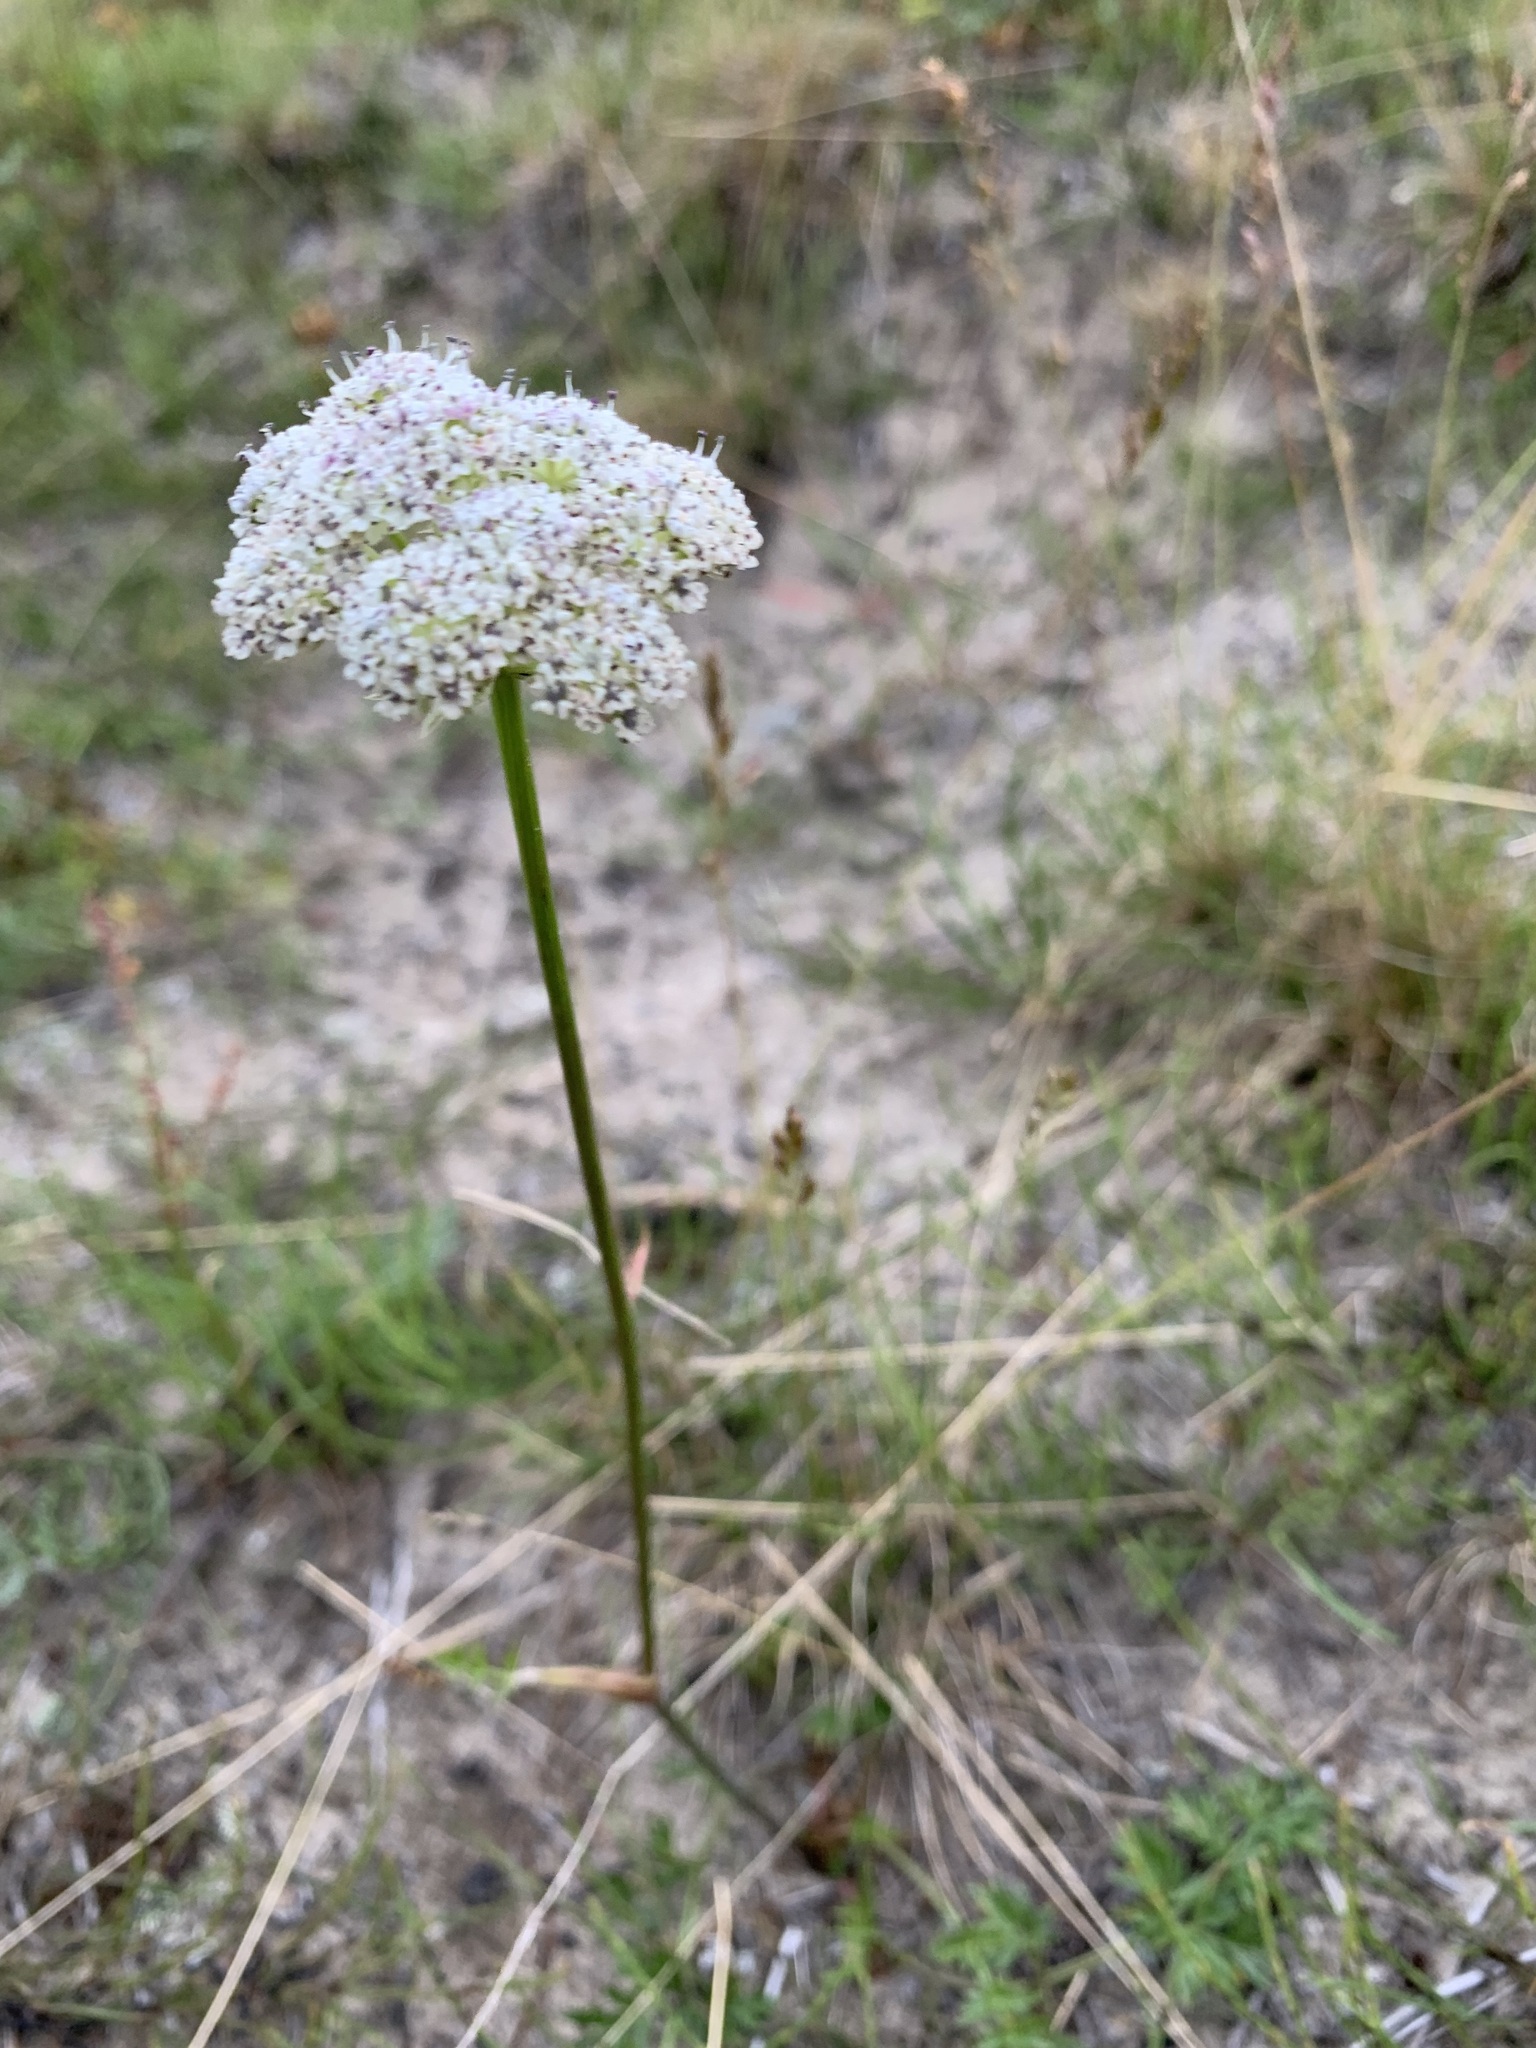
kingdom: Plantae
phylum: Tracheophyta
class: Magnoliopsida
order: Apiales
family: Apiaceae
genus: Pachypleurum
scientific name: Pachypleurum mutellinoides
